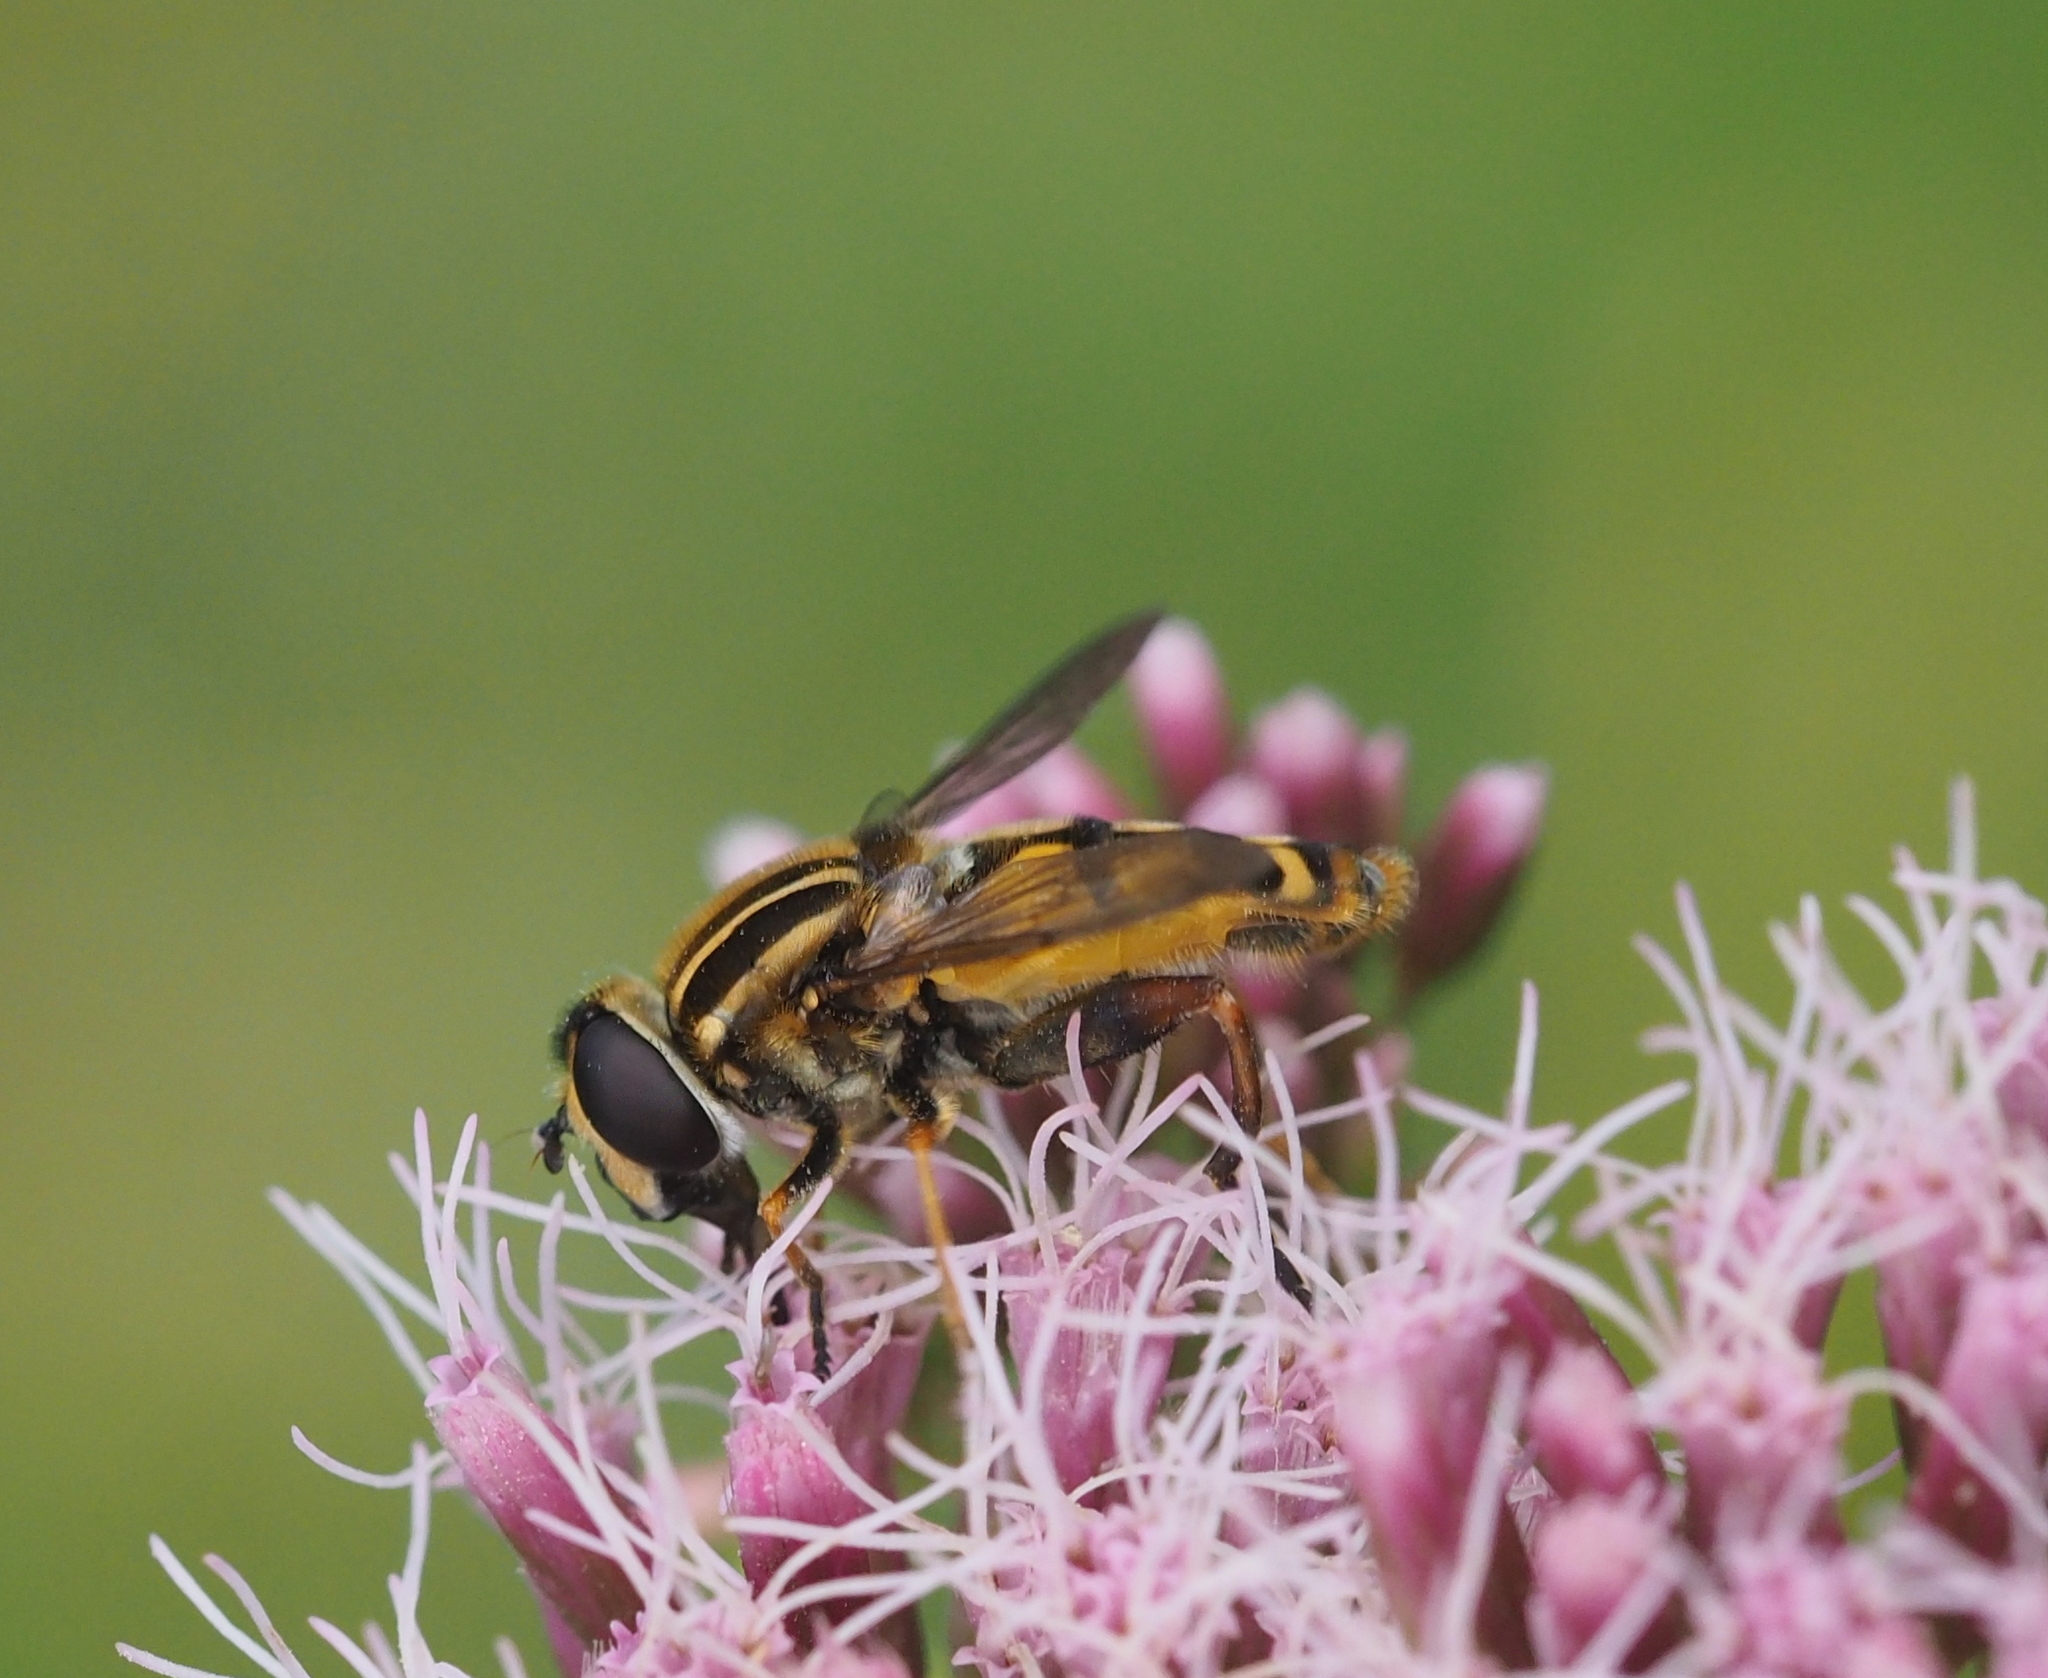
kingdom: Animalia
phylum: Arthropoda
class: Insecta
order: Diptera
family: Syrphidae
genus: Helophilus
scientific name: Helophilus pendulus
